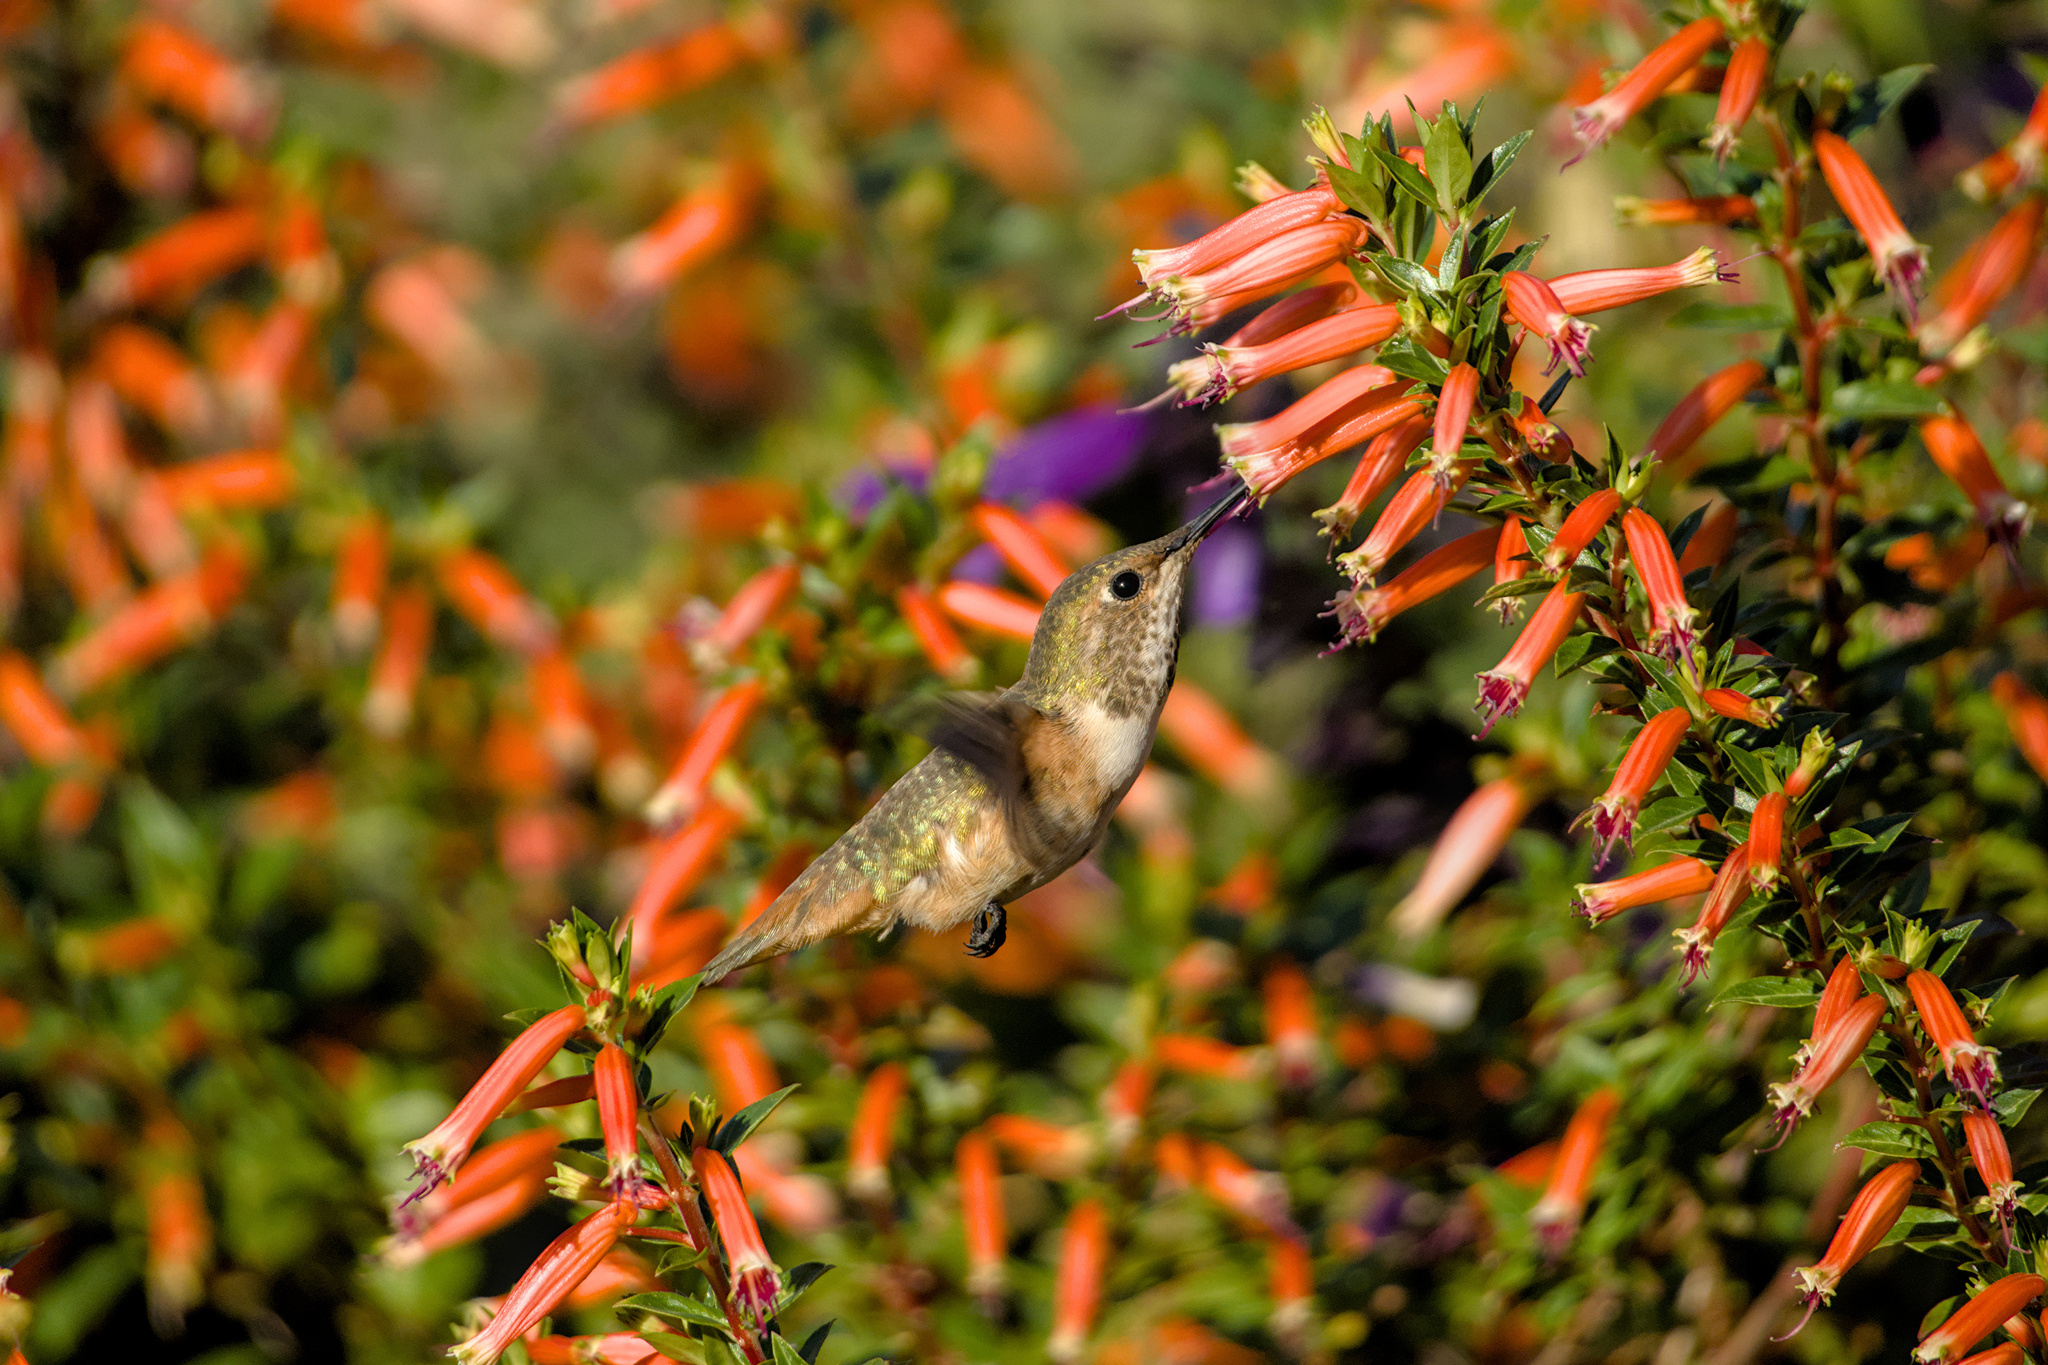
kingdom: Animalia
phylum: Chordata
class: Aves
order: Apodiformes
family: Trochilidae
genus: Selasphorus
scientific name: Selasphorus sasin
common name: Allen's hummingbird
